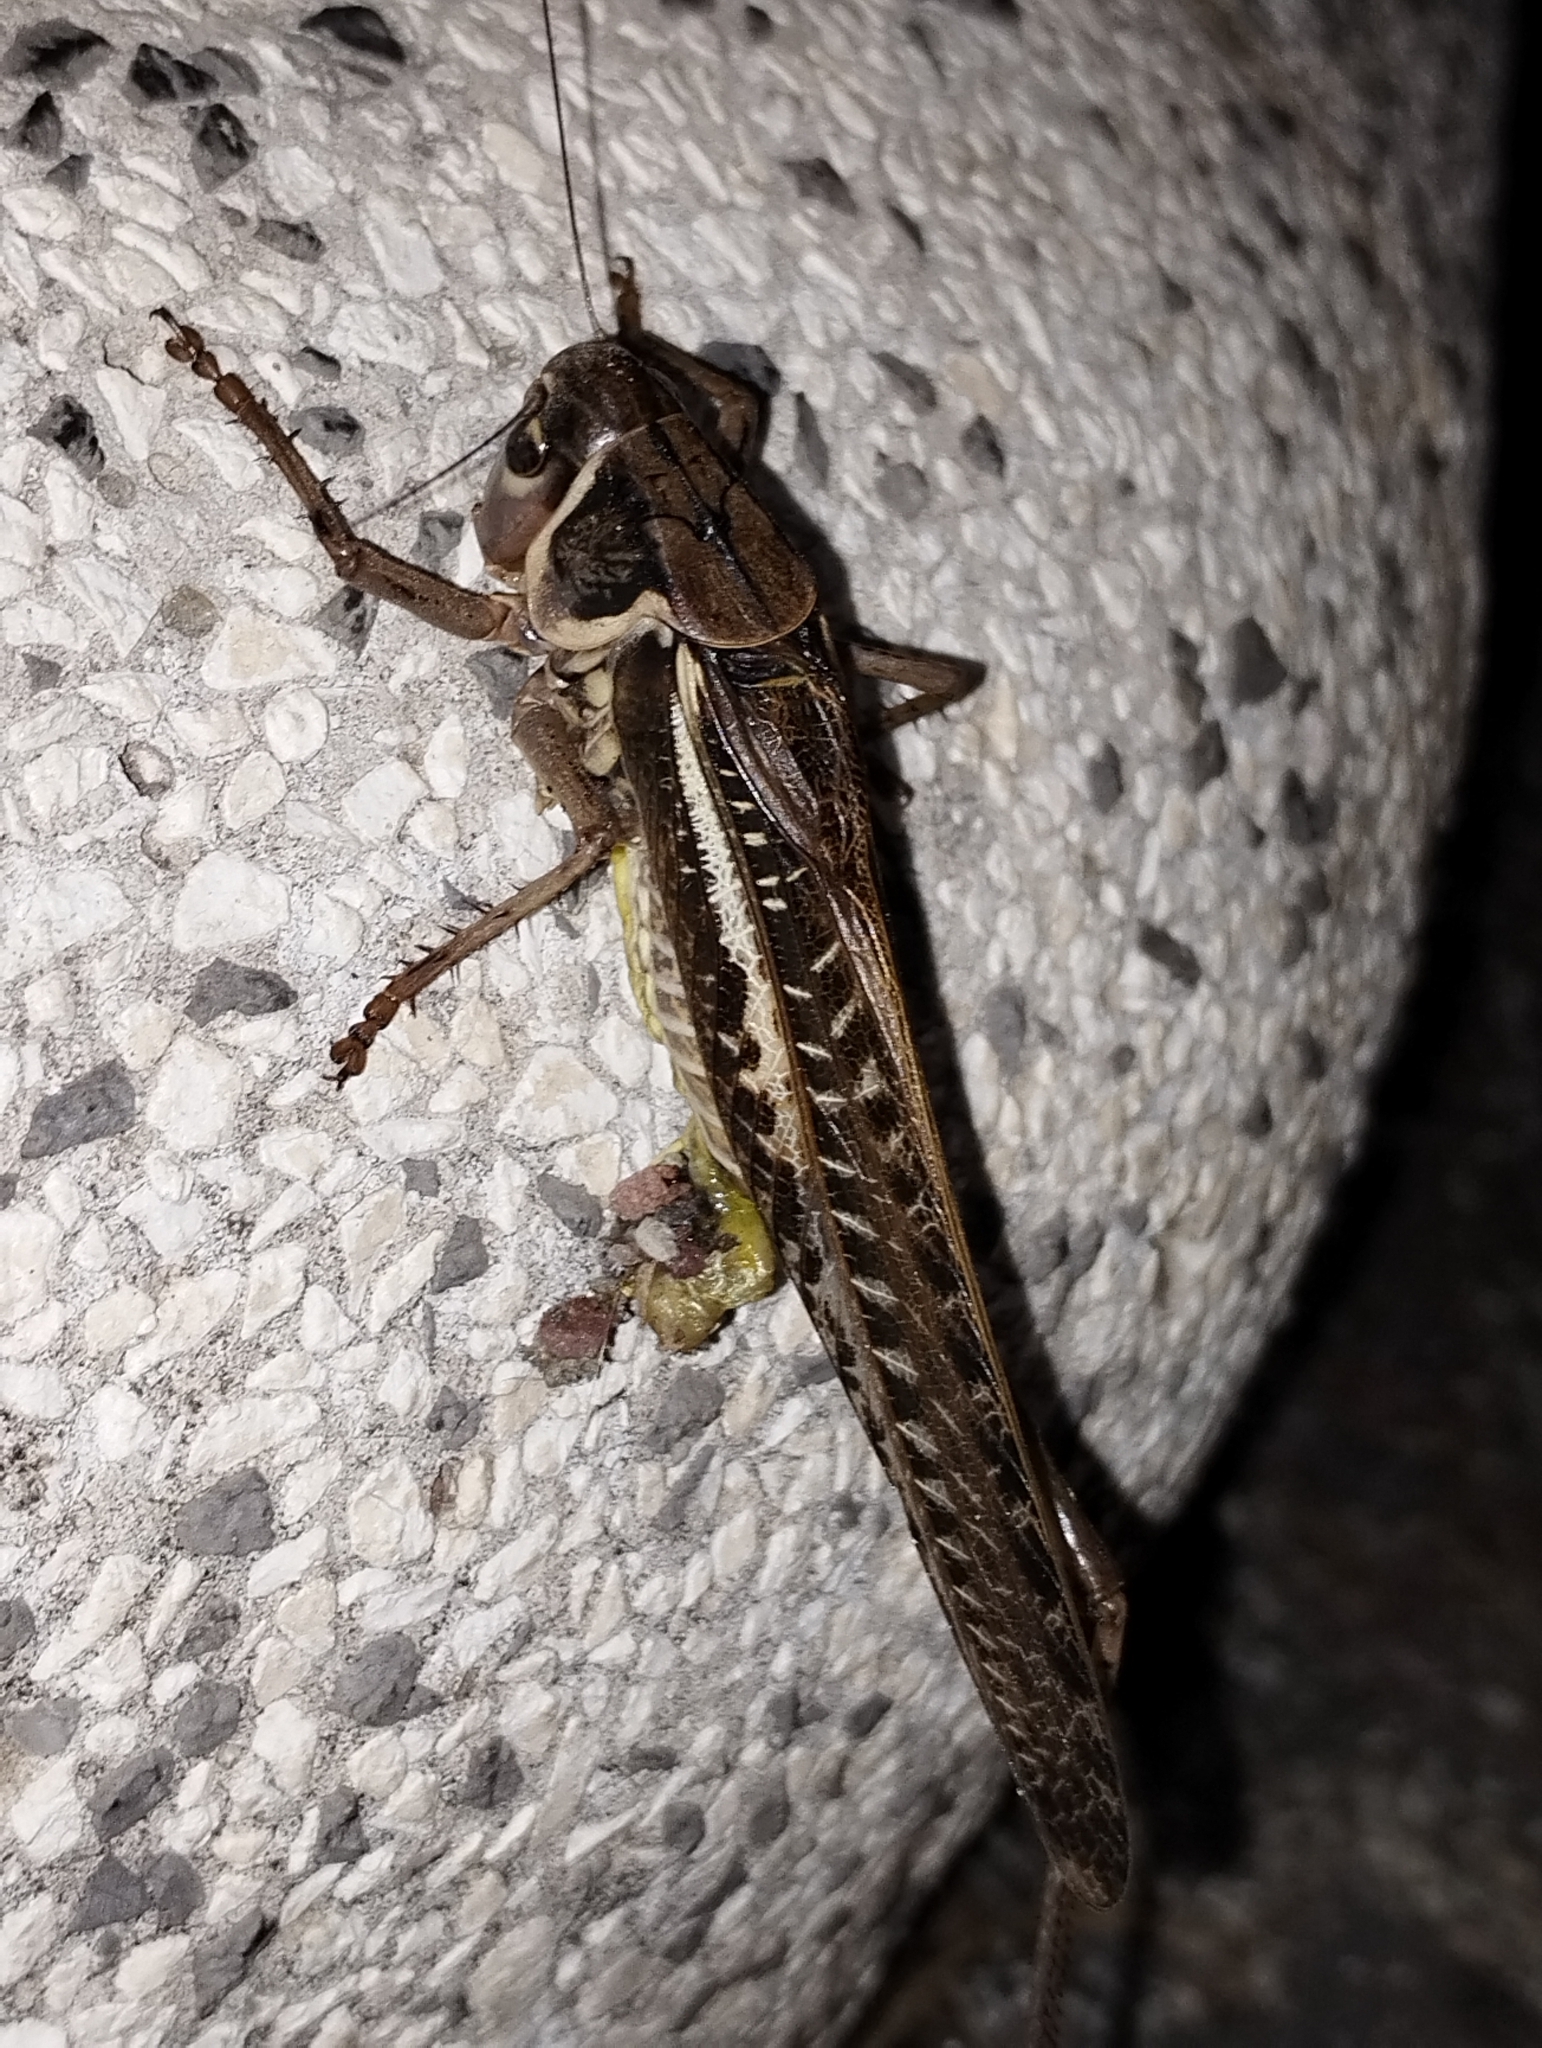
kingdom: Animalia
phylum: Arthropoda
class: Insecta
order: Orthoptera
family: Tettigoniidae
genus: Decticus
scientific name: Decticus albifrons
